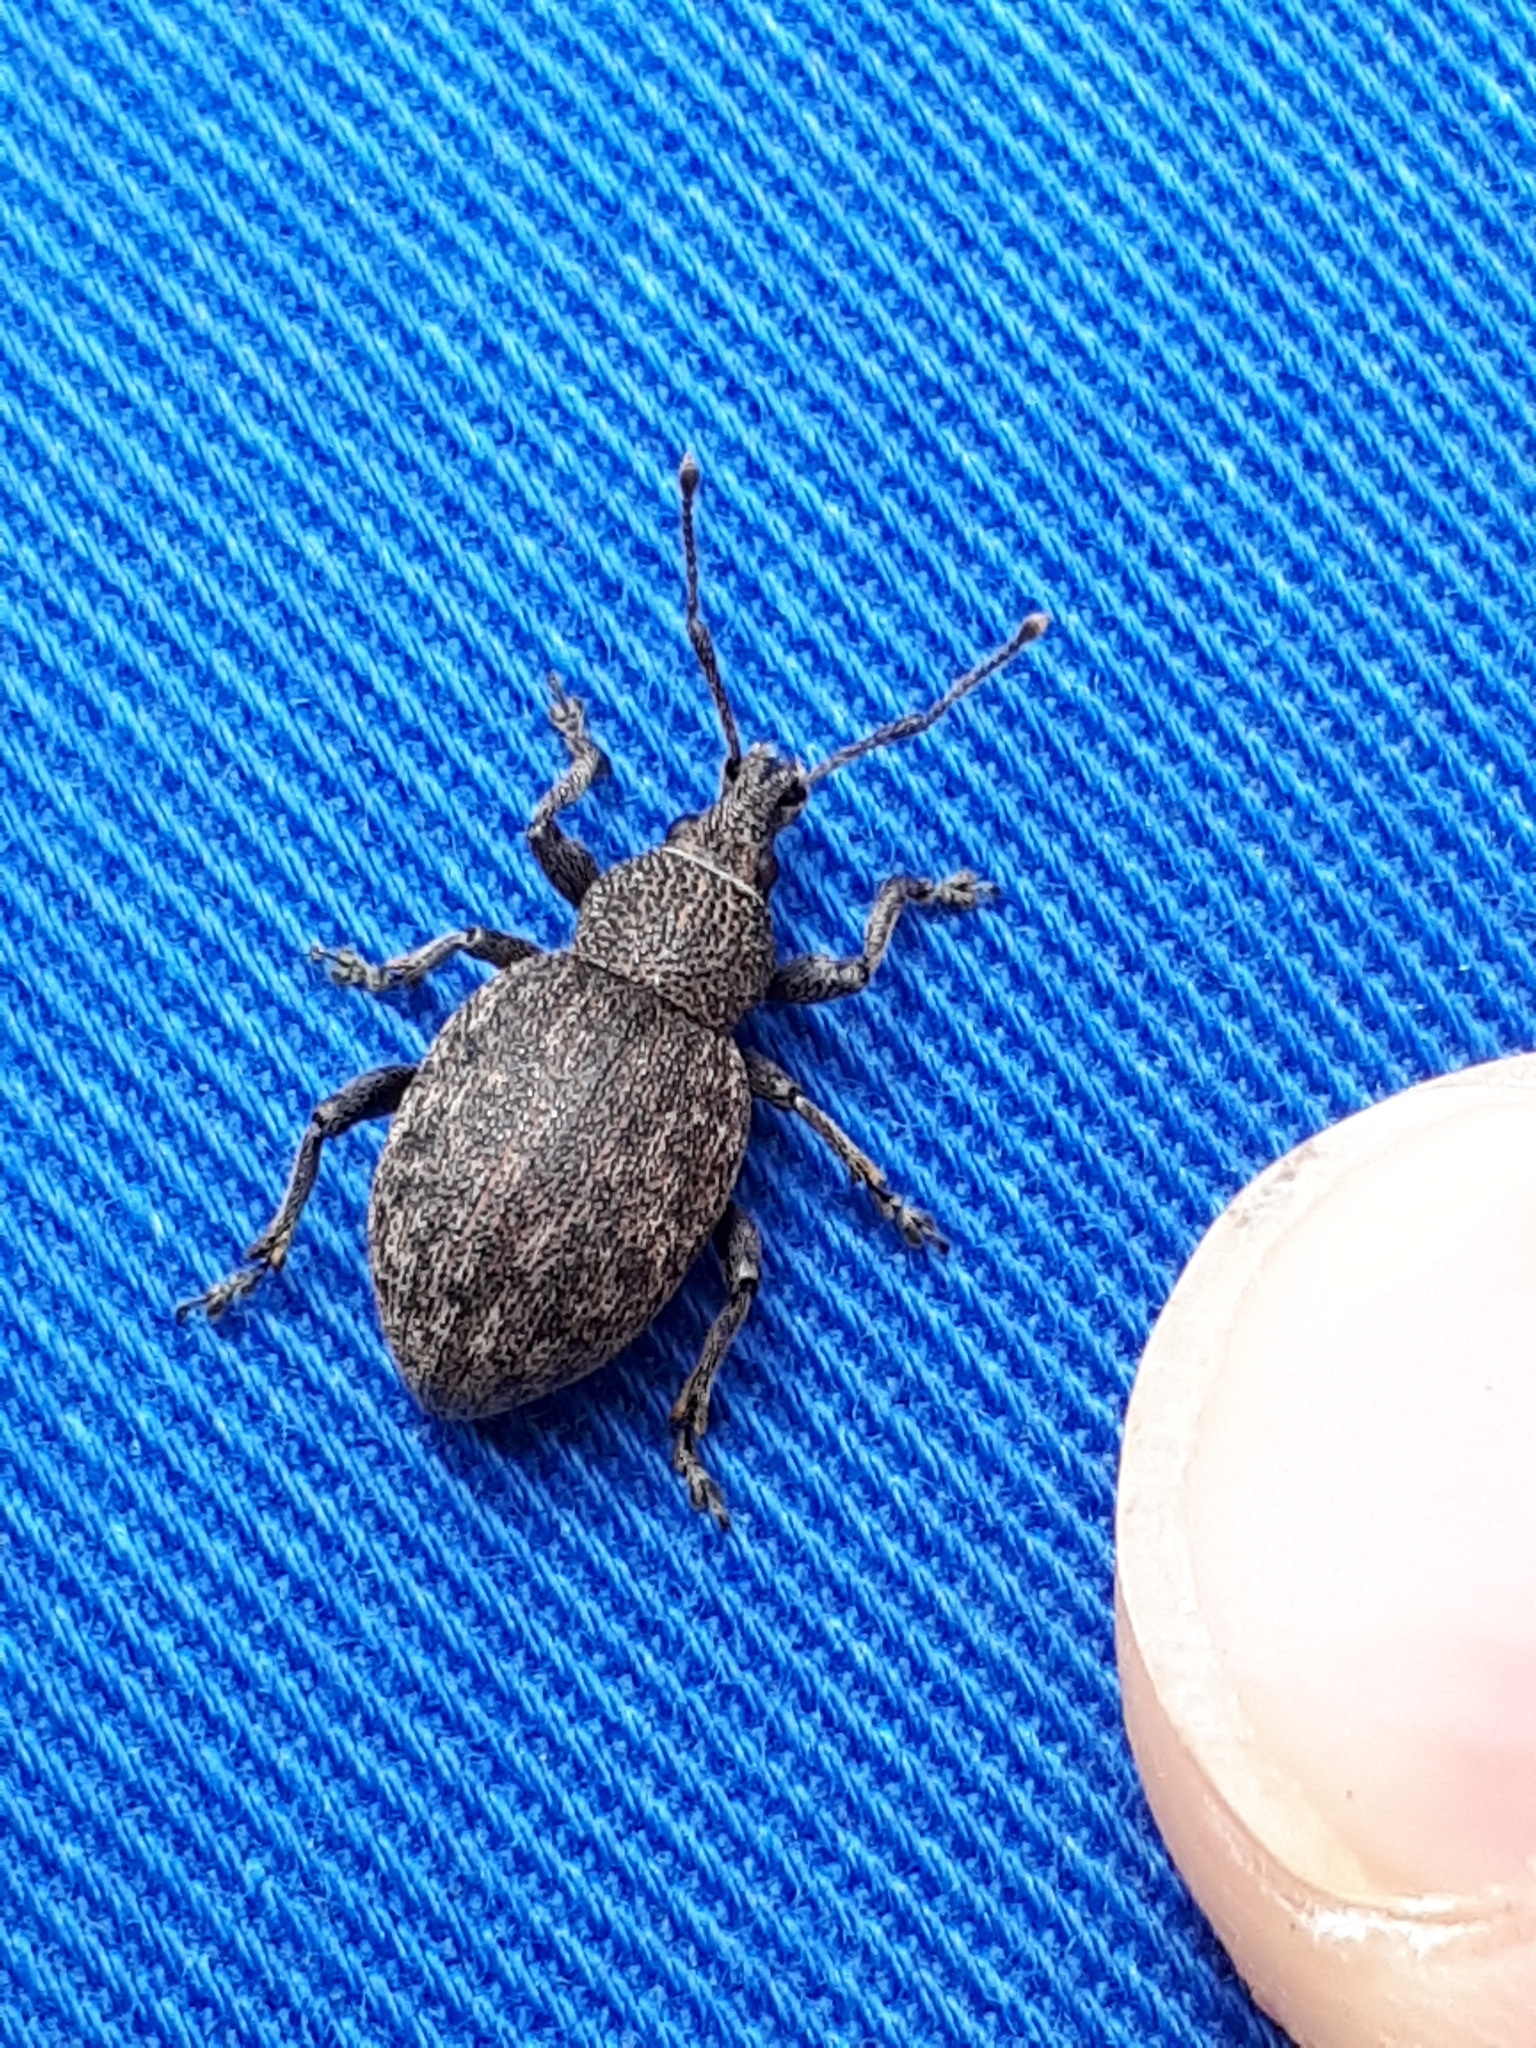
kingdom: Animalia
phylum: Arthropoda
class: Insecta
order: Coleoptera
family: Curculionidae
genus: Otiorhynchus
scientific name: Otiorhynchus ligustici
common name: Weevil
